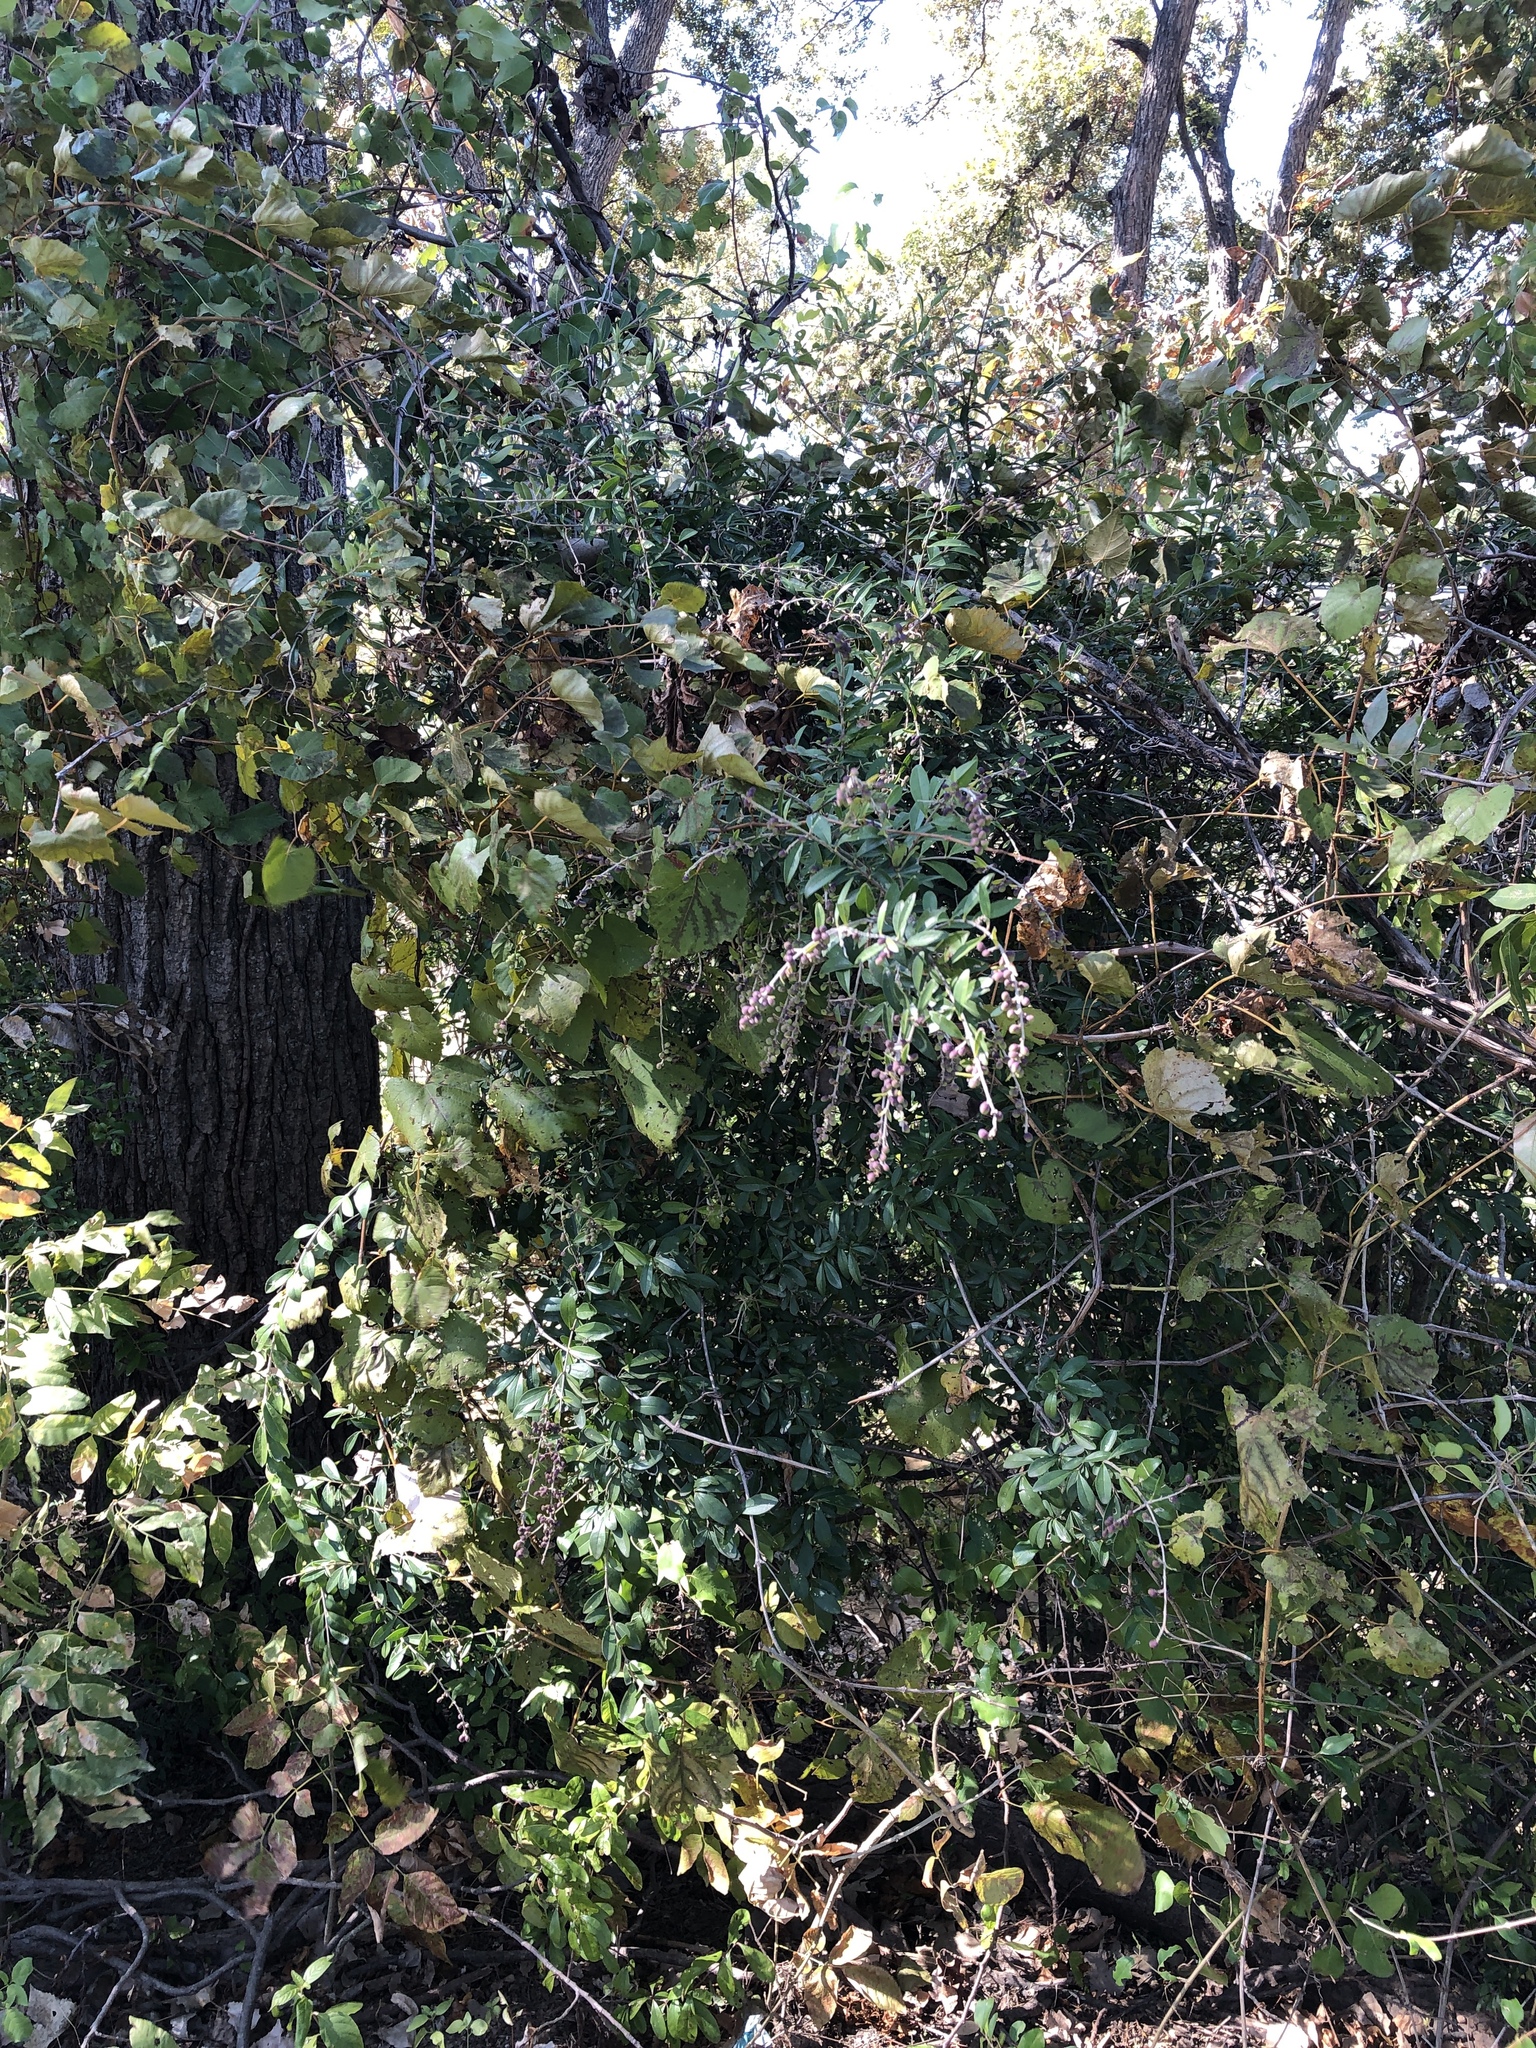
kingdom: Plantae
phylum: Tracheophyta
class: Magnoliopsida
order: Lamiales
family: Oleaceae
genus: Ligustrum
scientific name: Ligustrum quihoui
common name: Waxyleaf privet
